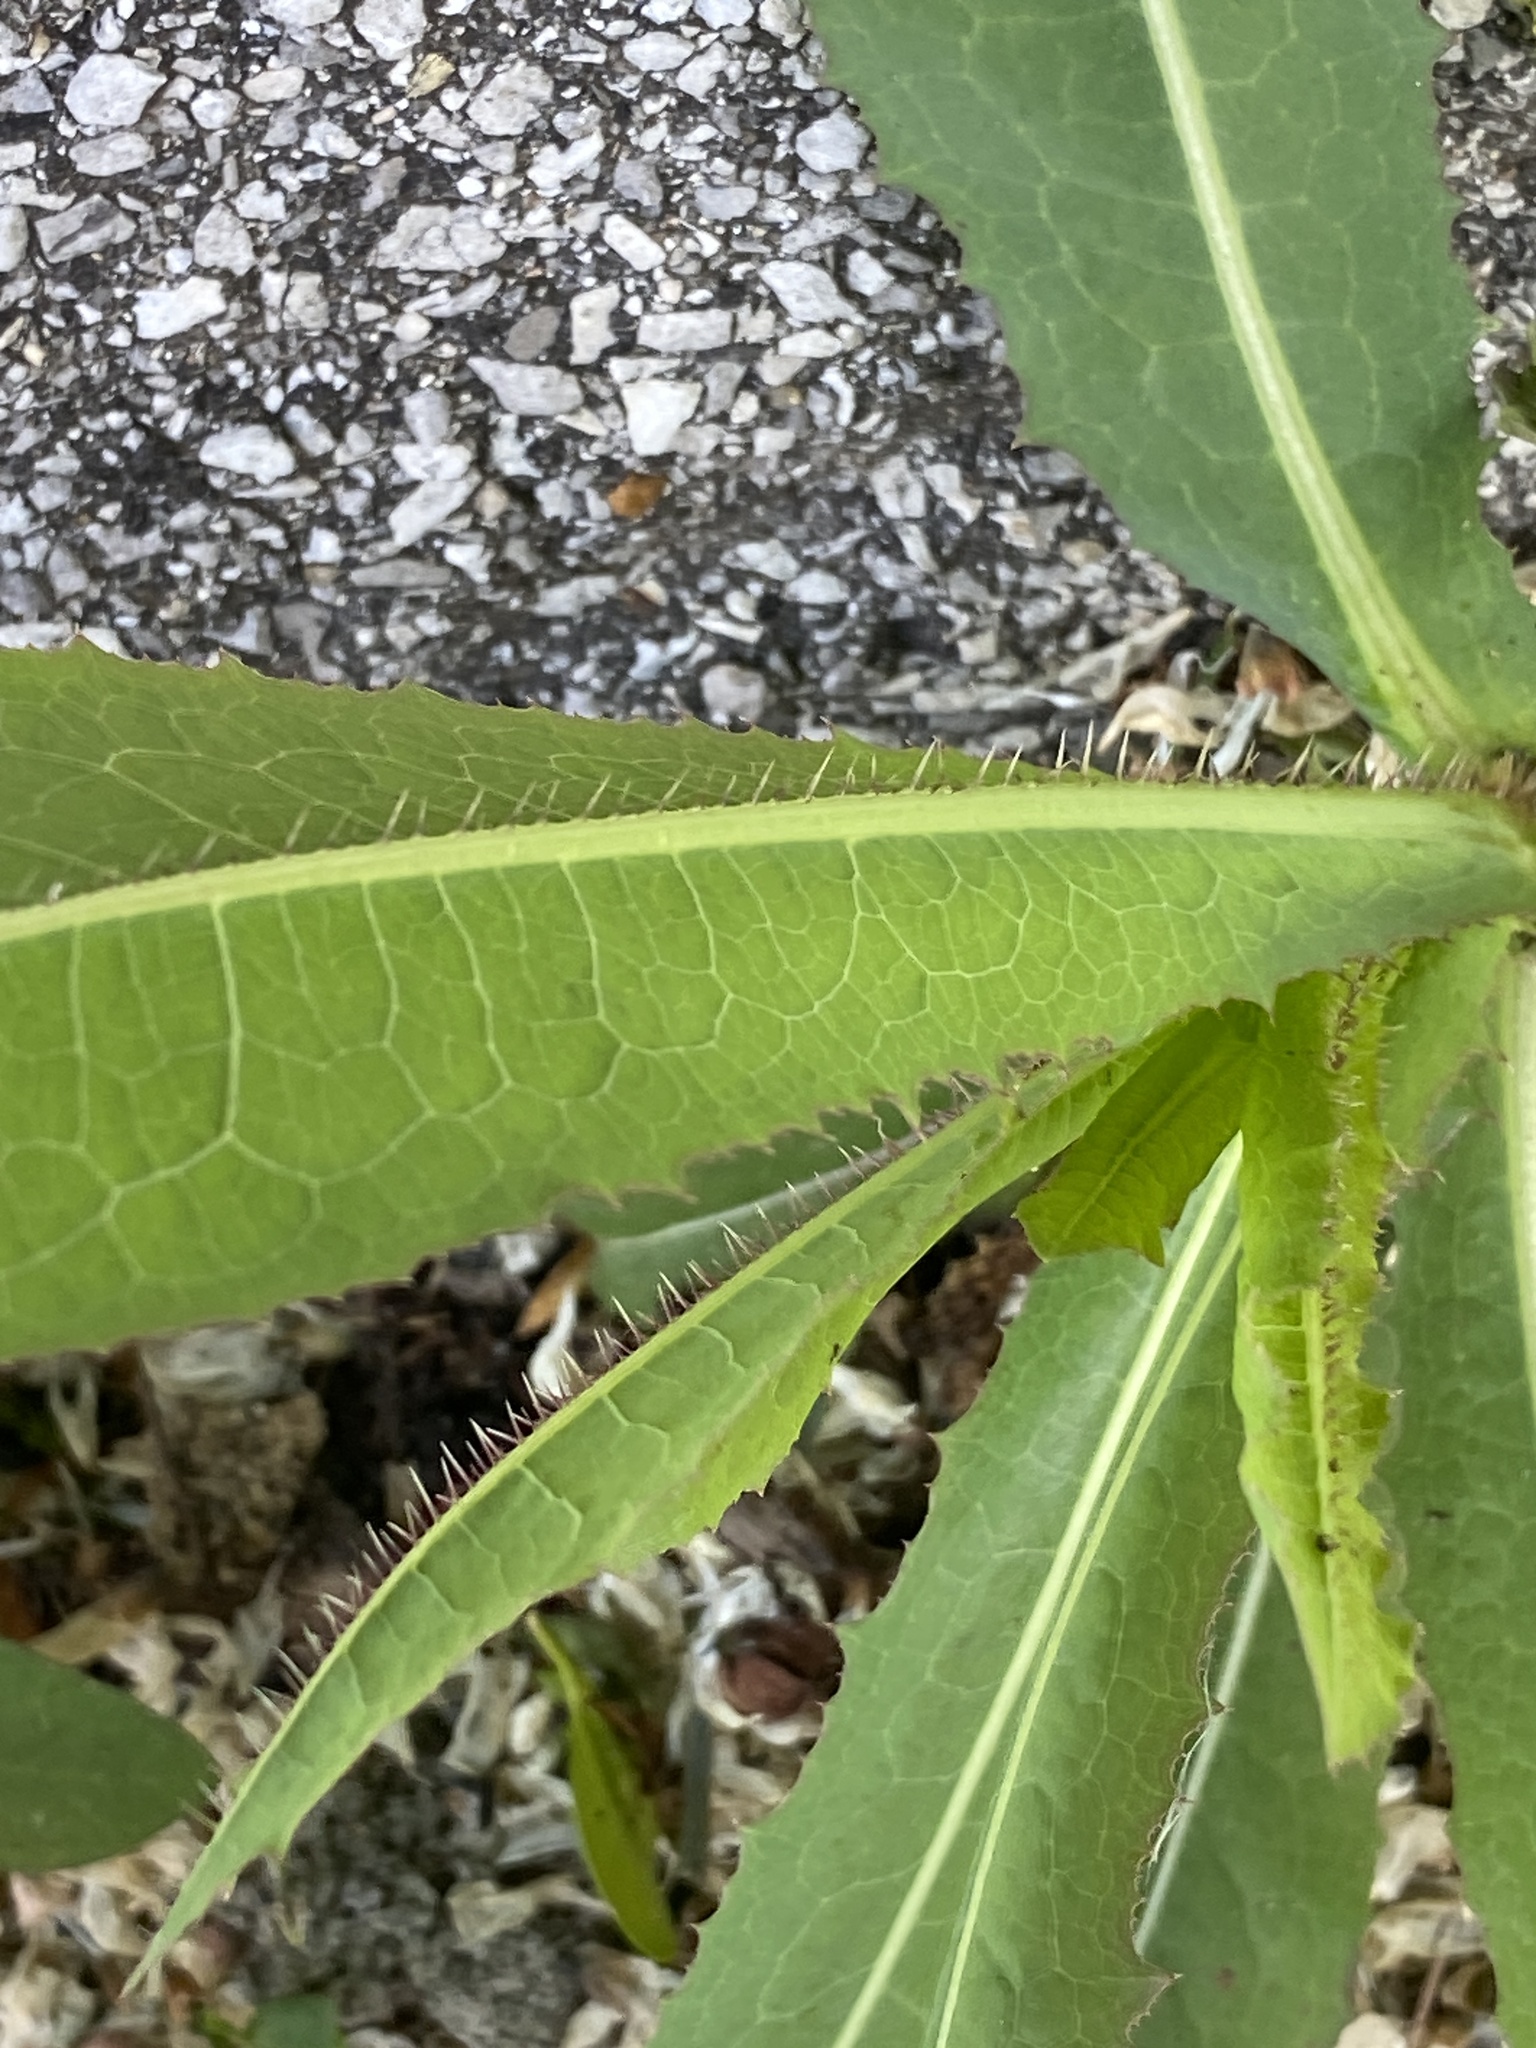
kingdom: Plantae
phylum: Tracheophyta
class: Magnoliopsida
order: Asterales
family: Asteraceae
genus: Lactuca
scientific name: Lactuca serriola
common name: Prickly lettuce
